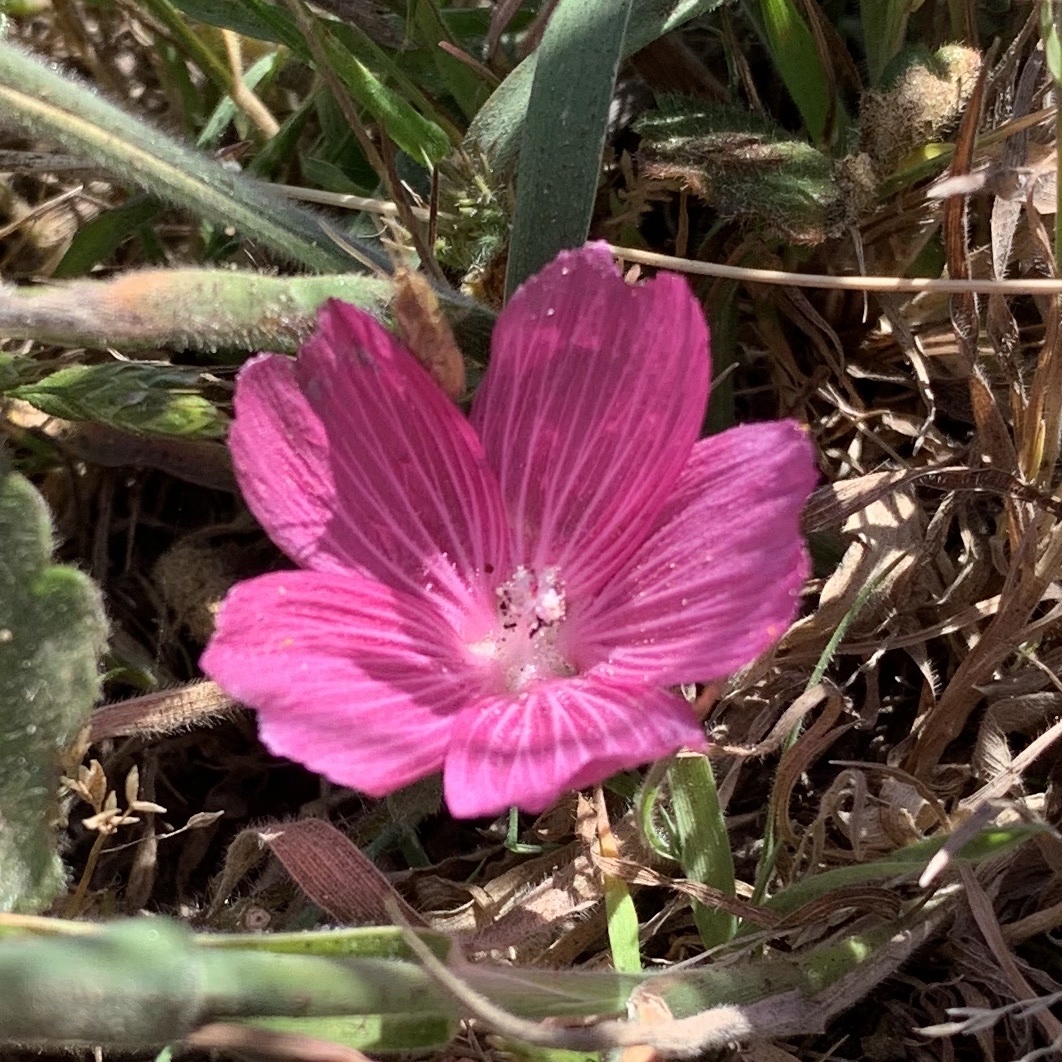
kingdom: Plantae
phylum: Tracheophyta
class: Magnoliopsida
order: Malvales
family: Malvaceae
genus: Sidalcea
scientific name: Sidalcea malviflora
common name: Greek mallow
